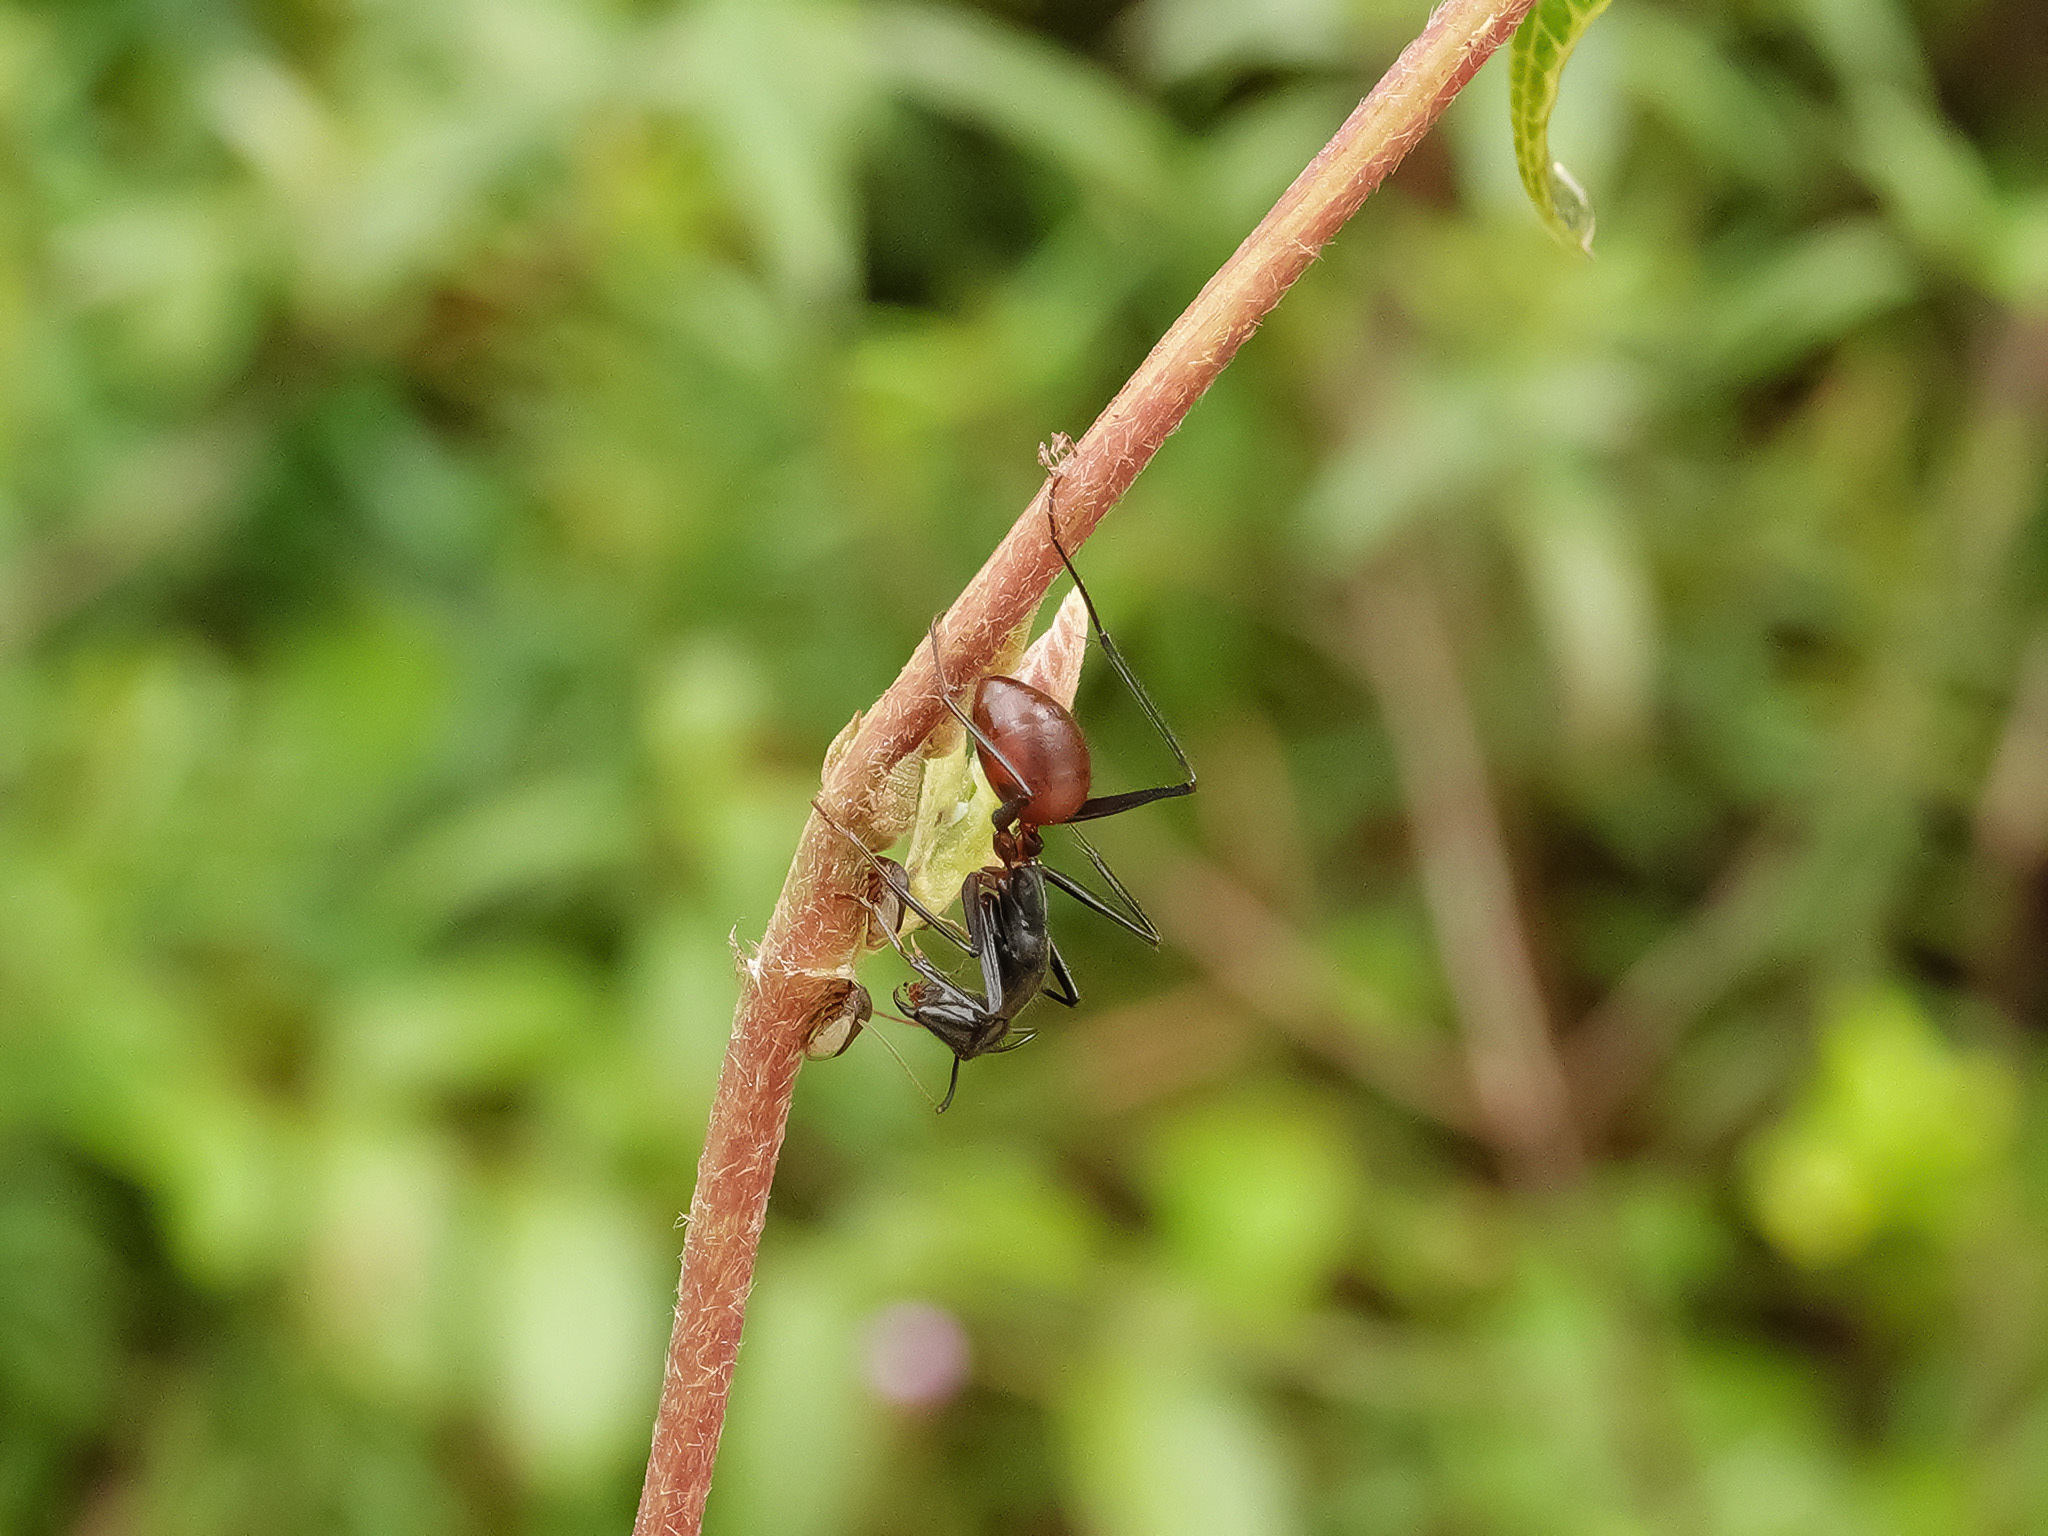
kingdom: Animalia
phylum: Arthropoda
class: Insecta
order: Hymenoptera
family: Formicidae
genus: Dinomyrmex
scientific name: Dinomyrmex
